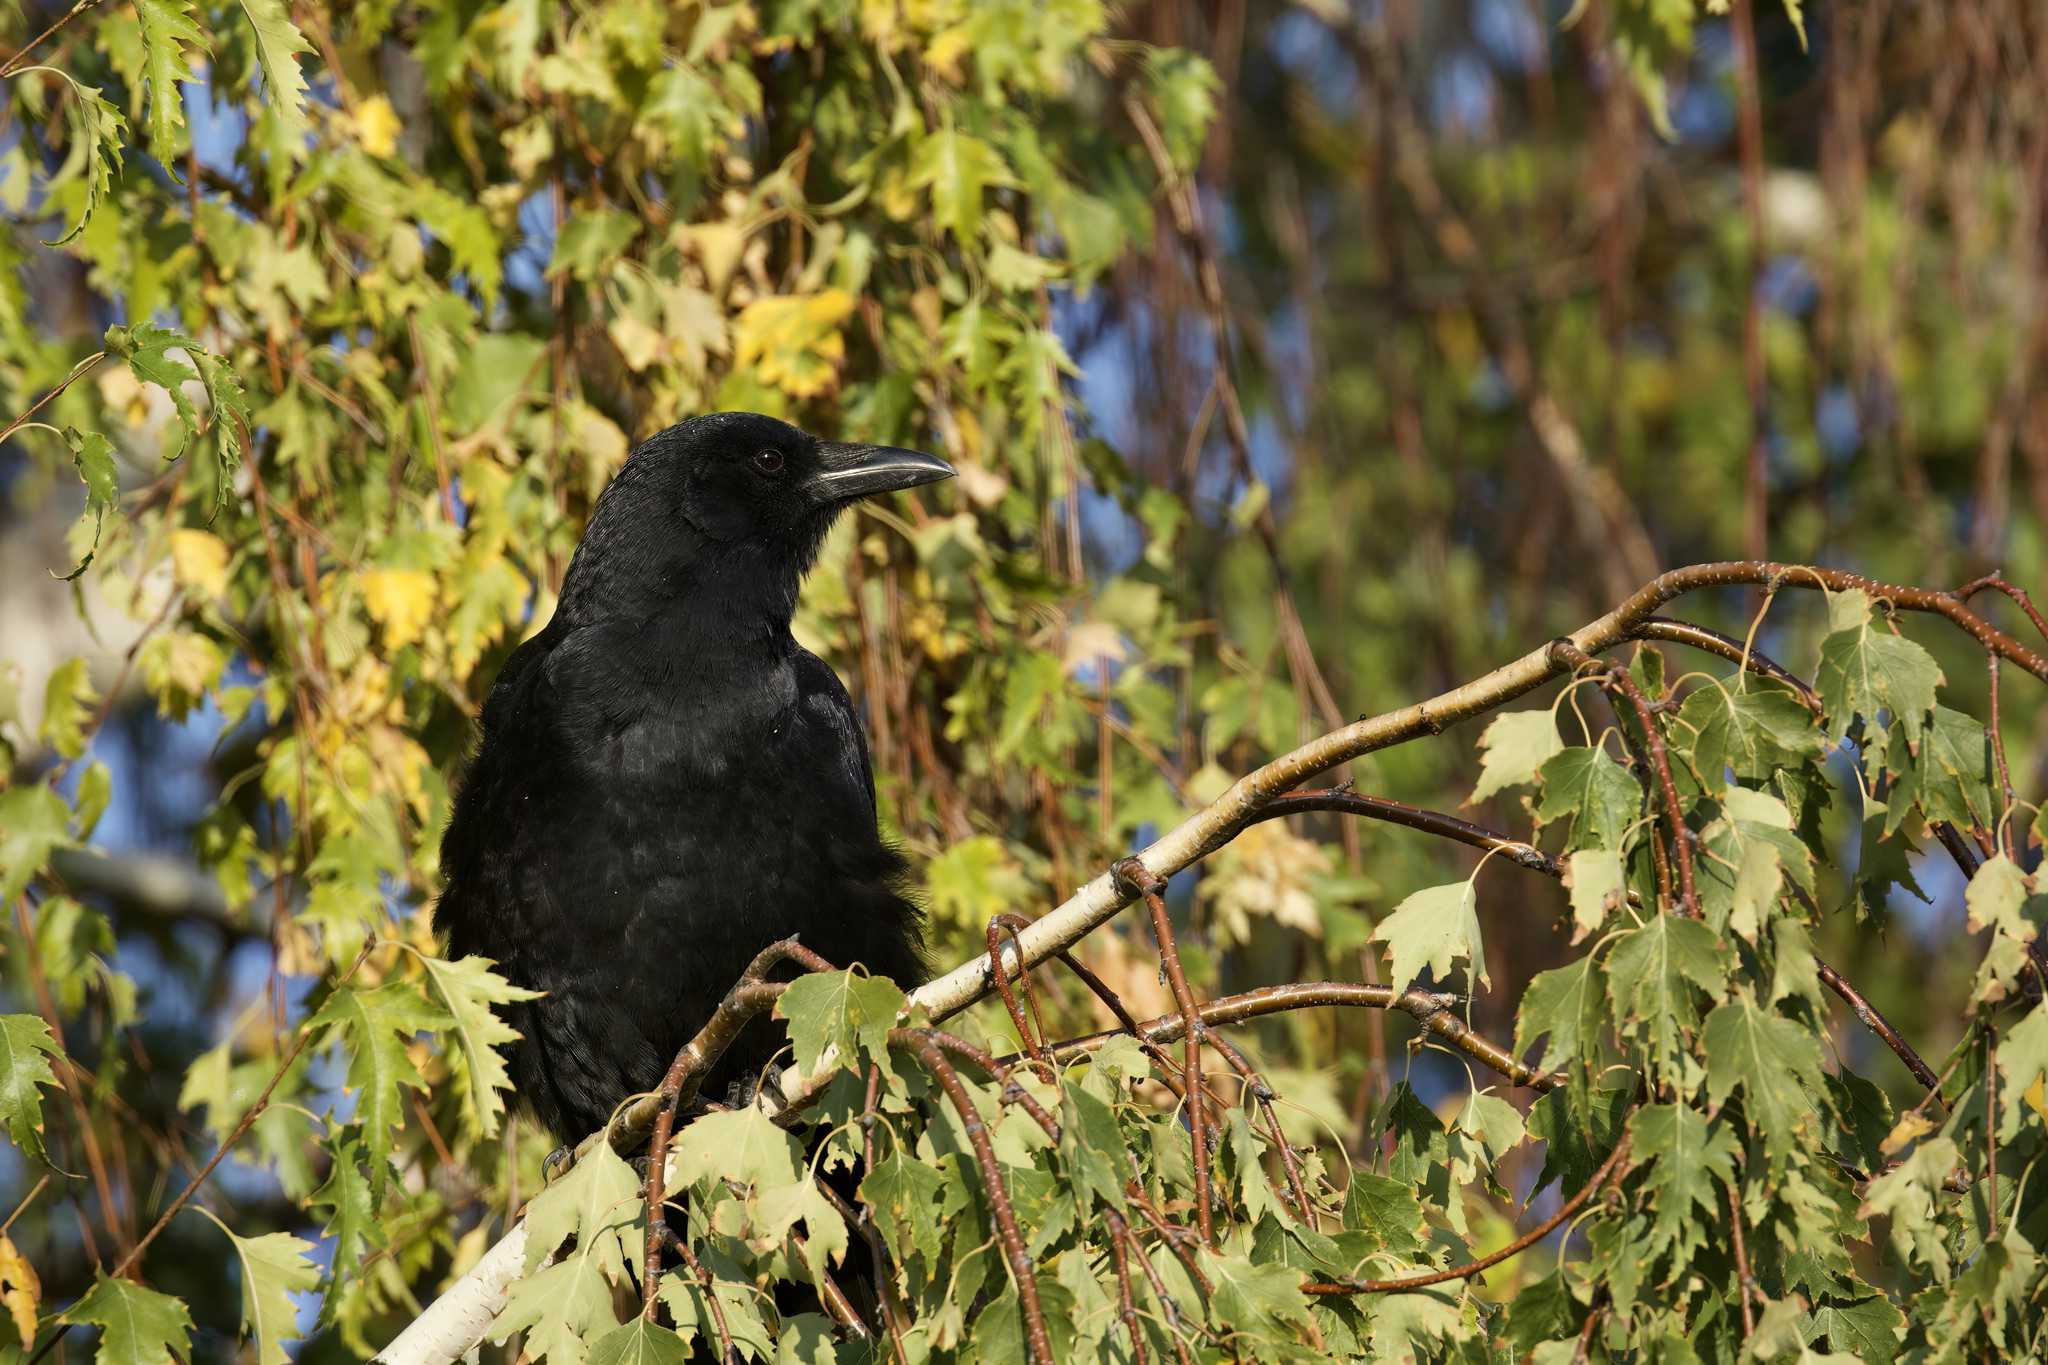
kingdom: Animalia
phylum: Chordata
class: Aves
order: Passeriformes
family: Corvidae
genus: Corvus
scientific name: Corvus brachyrhynchos
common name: American crow
